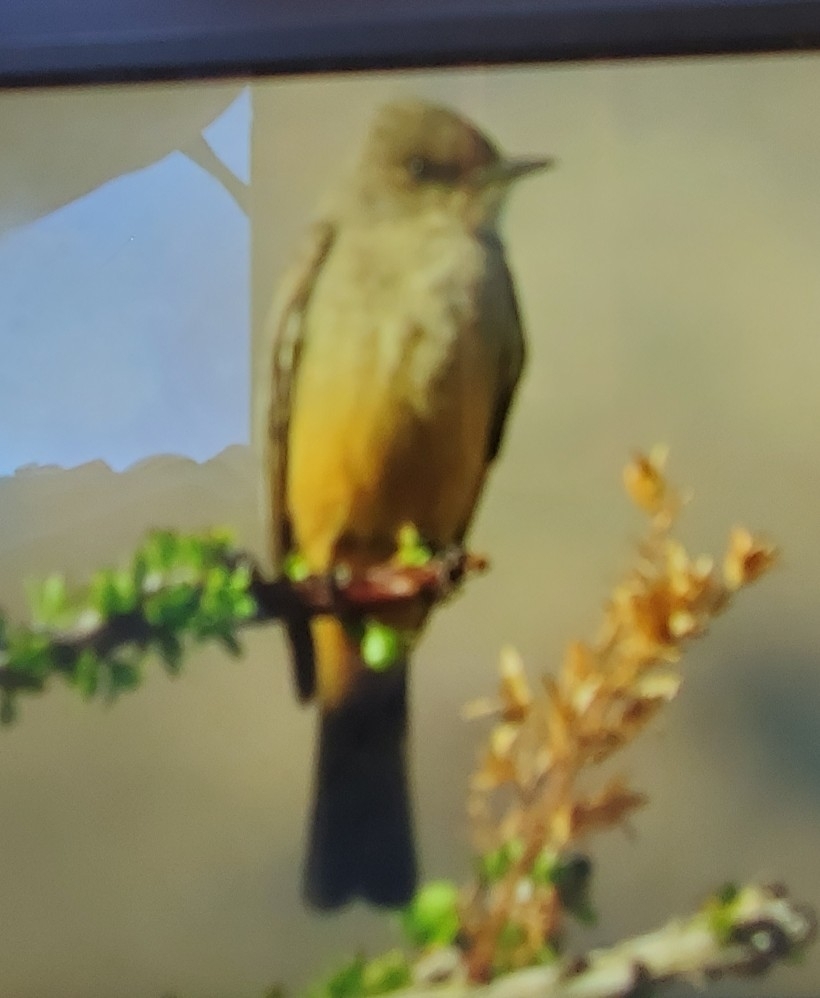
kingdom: Animalia
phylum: Chordata
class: Aves
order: Passeriformes
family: Tyrannidae
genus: Sayornis
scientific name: Sayornis saya
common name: Say's phoebe
